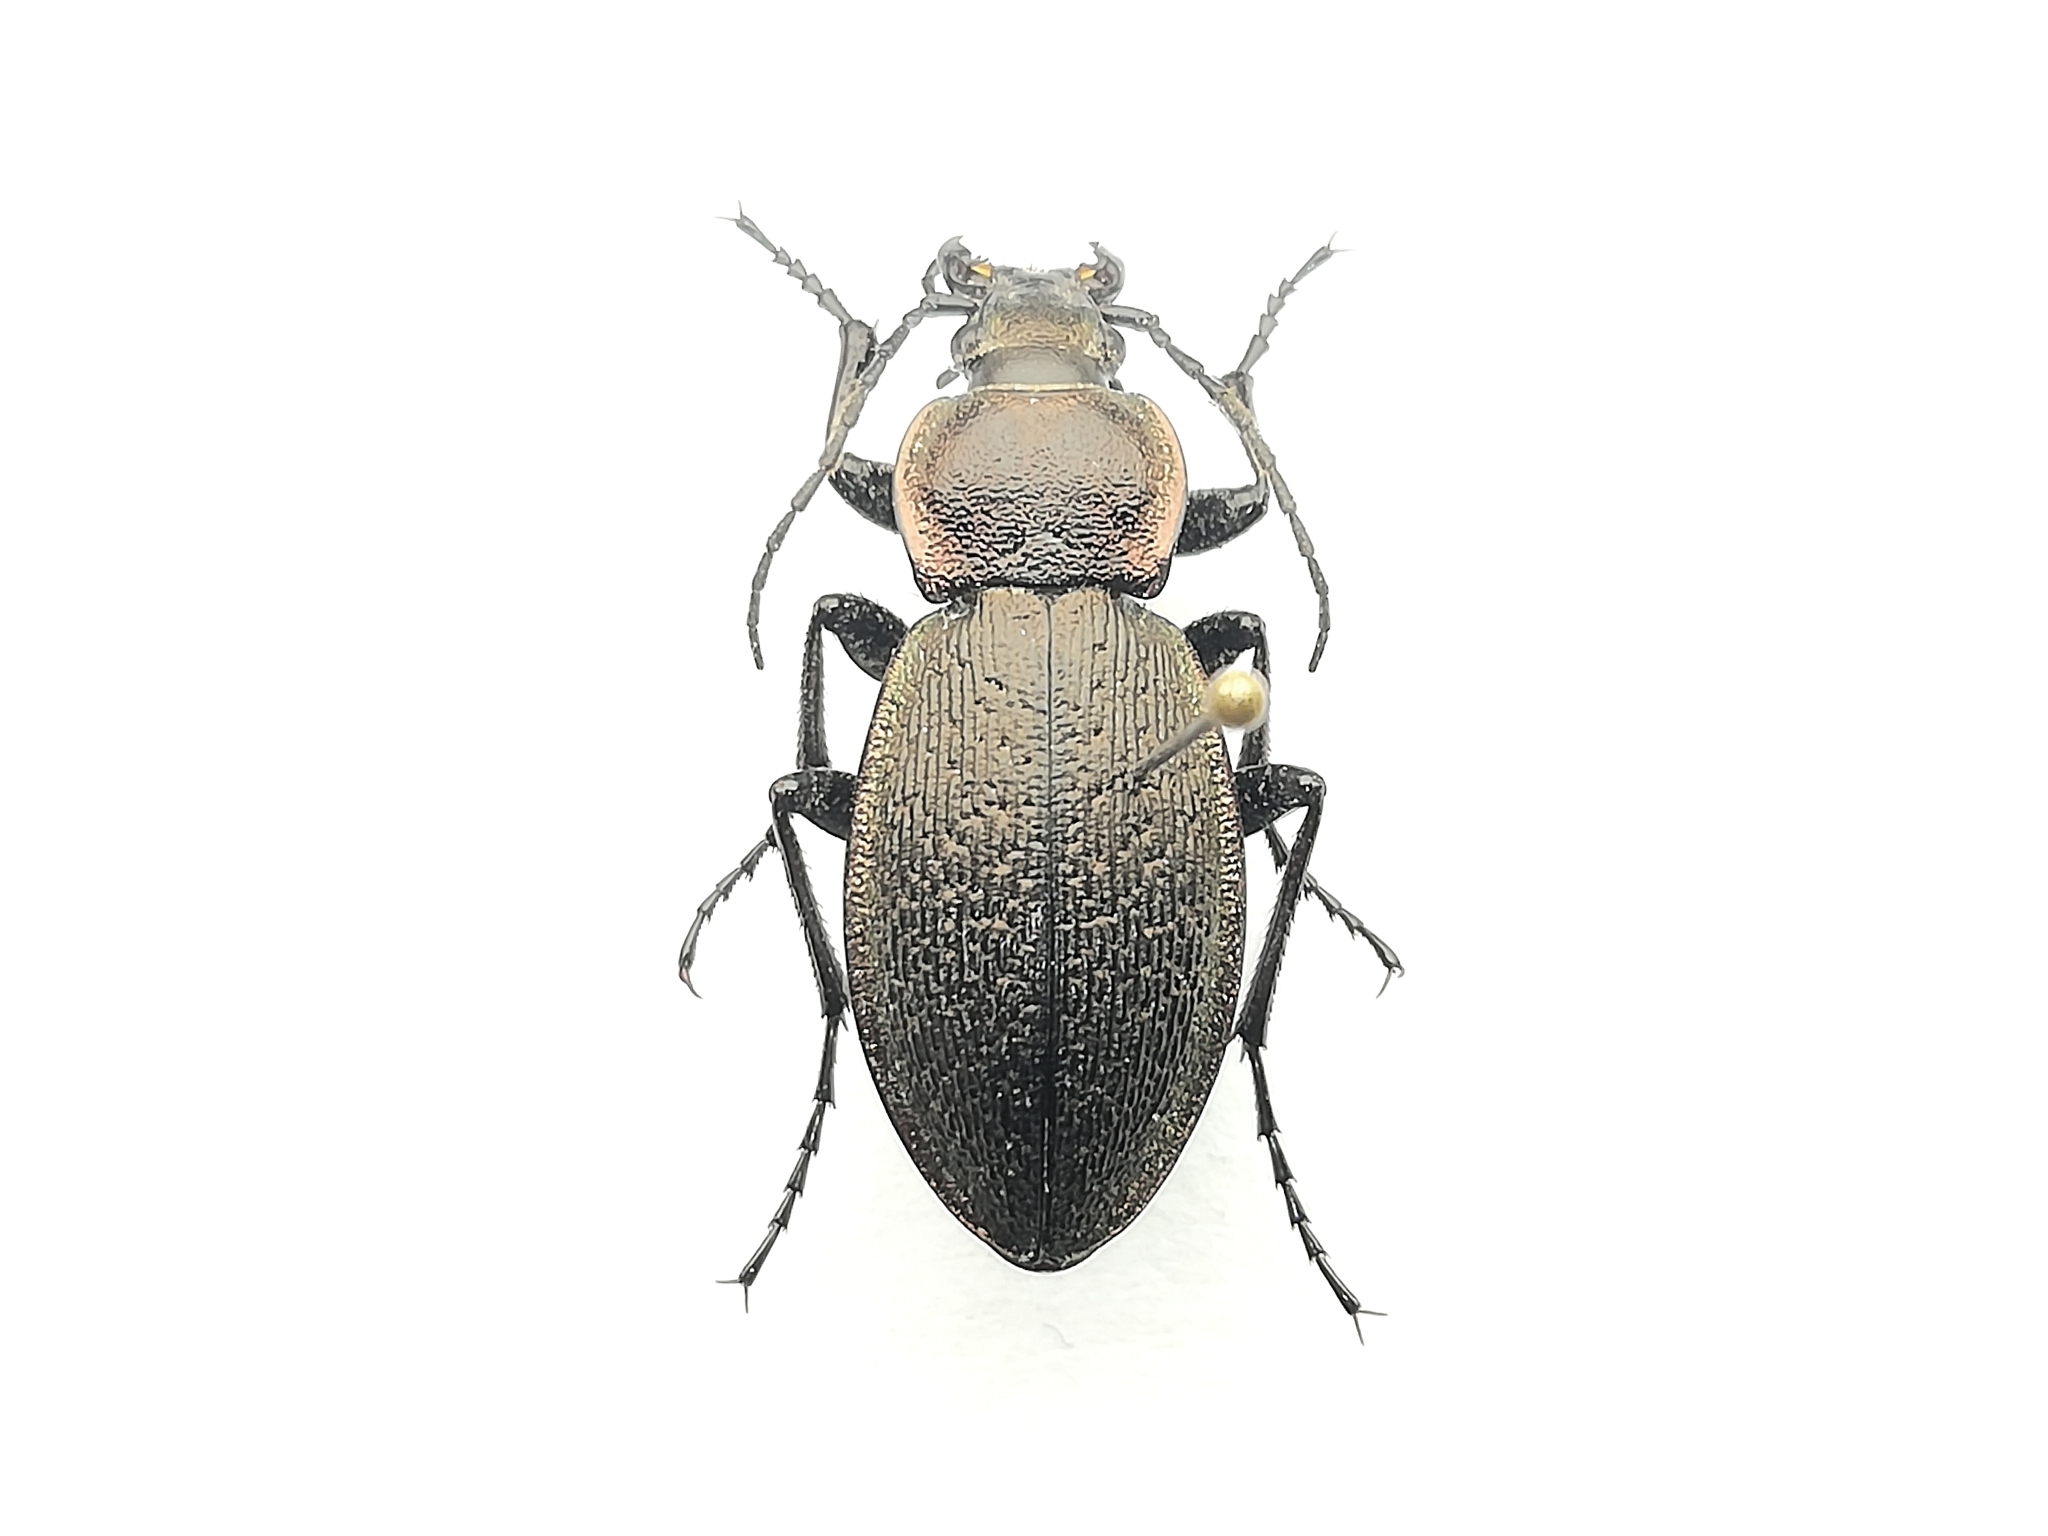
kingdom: Animalia
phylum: Arthropoda
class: Insecta
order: Coleoptera
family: Carabidae
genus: Carabus
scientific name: Carabus henningi
